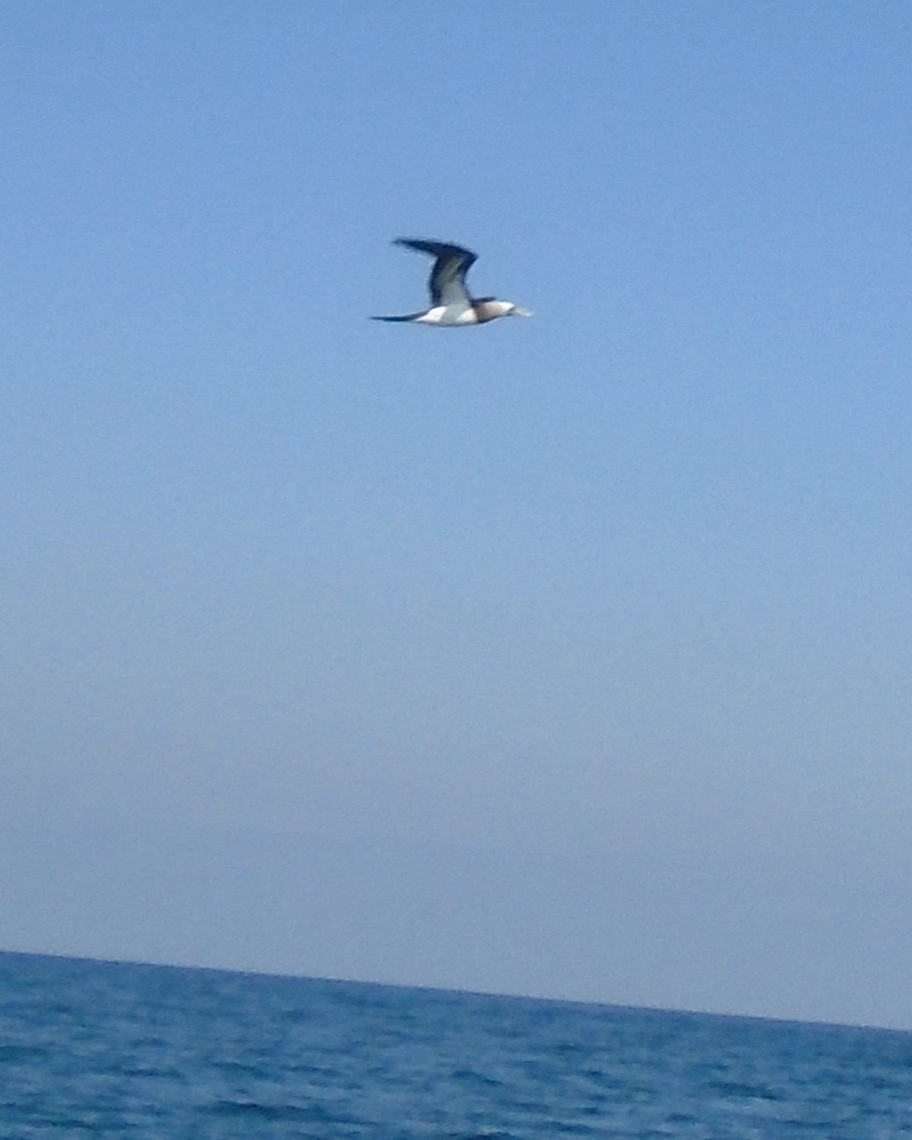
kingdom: Animalia
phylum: Chordata
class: Aves
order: Suliformes
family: Sulidae
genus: Sula
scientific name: Sula leucogaster
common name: Brown booby
